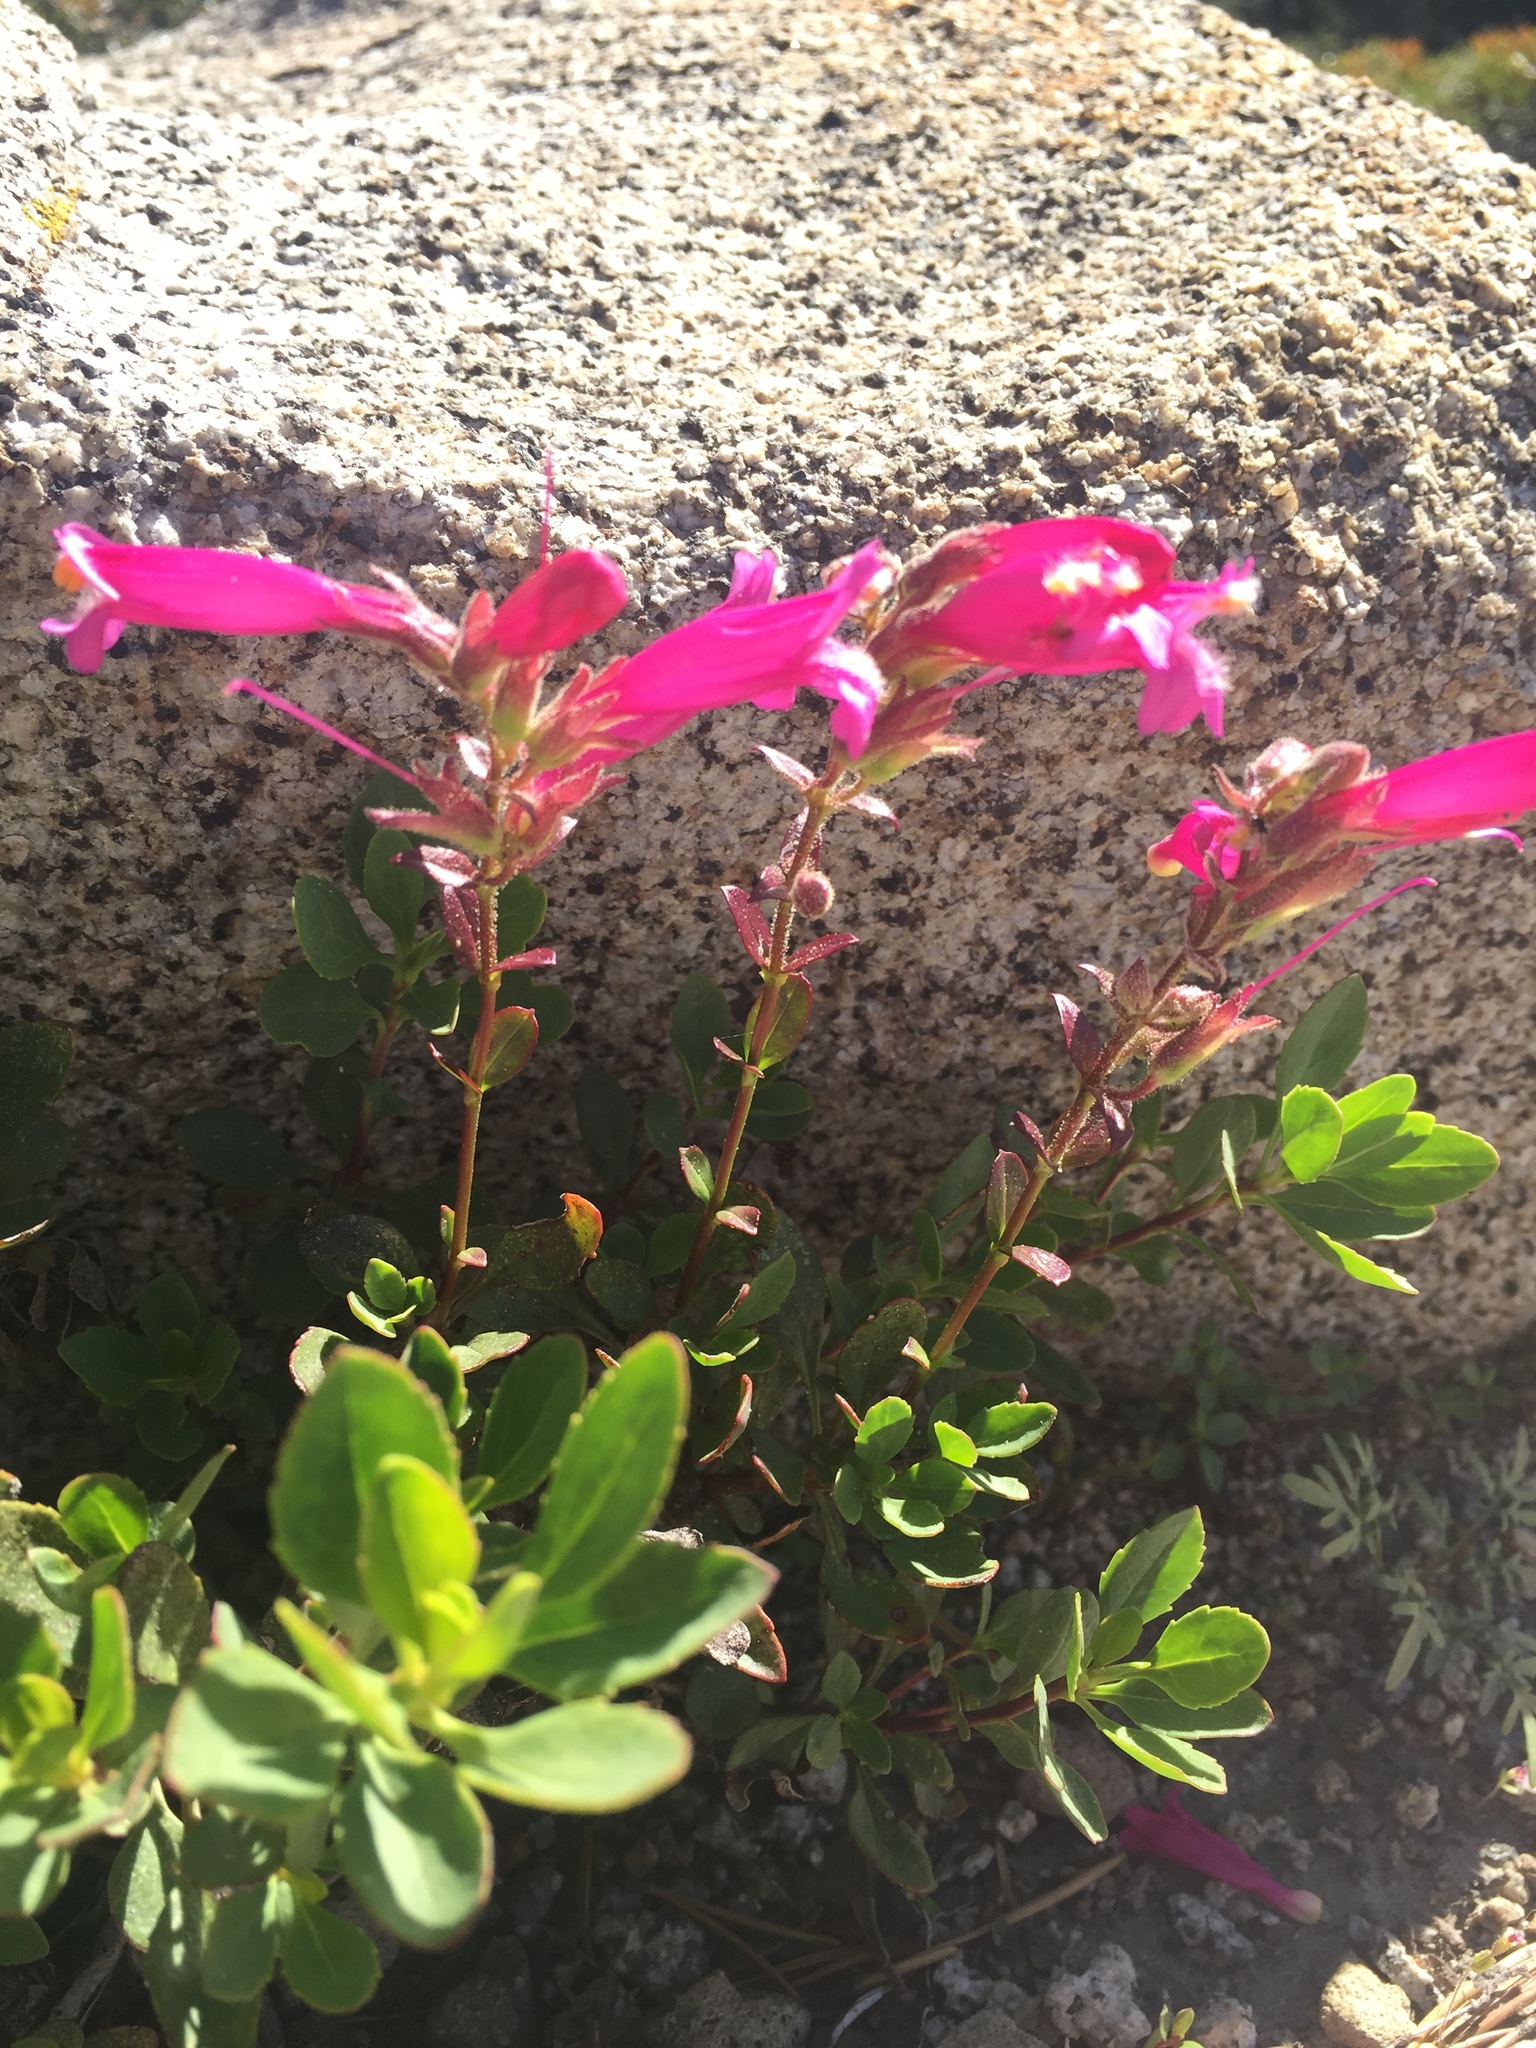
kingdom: Plantae
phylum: Tracheophyta
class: Magnoliopsida
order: Lamiales
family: Plantaginaceae
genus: Penstemon
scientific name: Penstemon newberryi
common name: Mountain-pride
